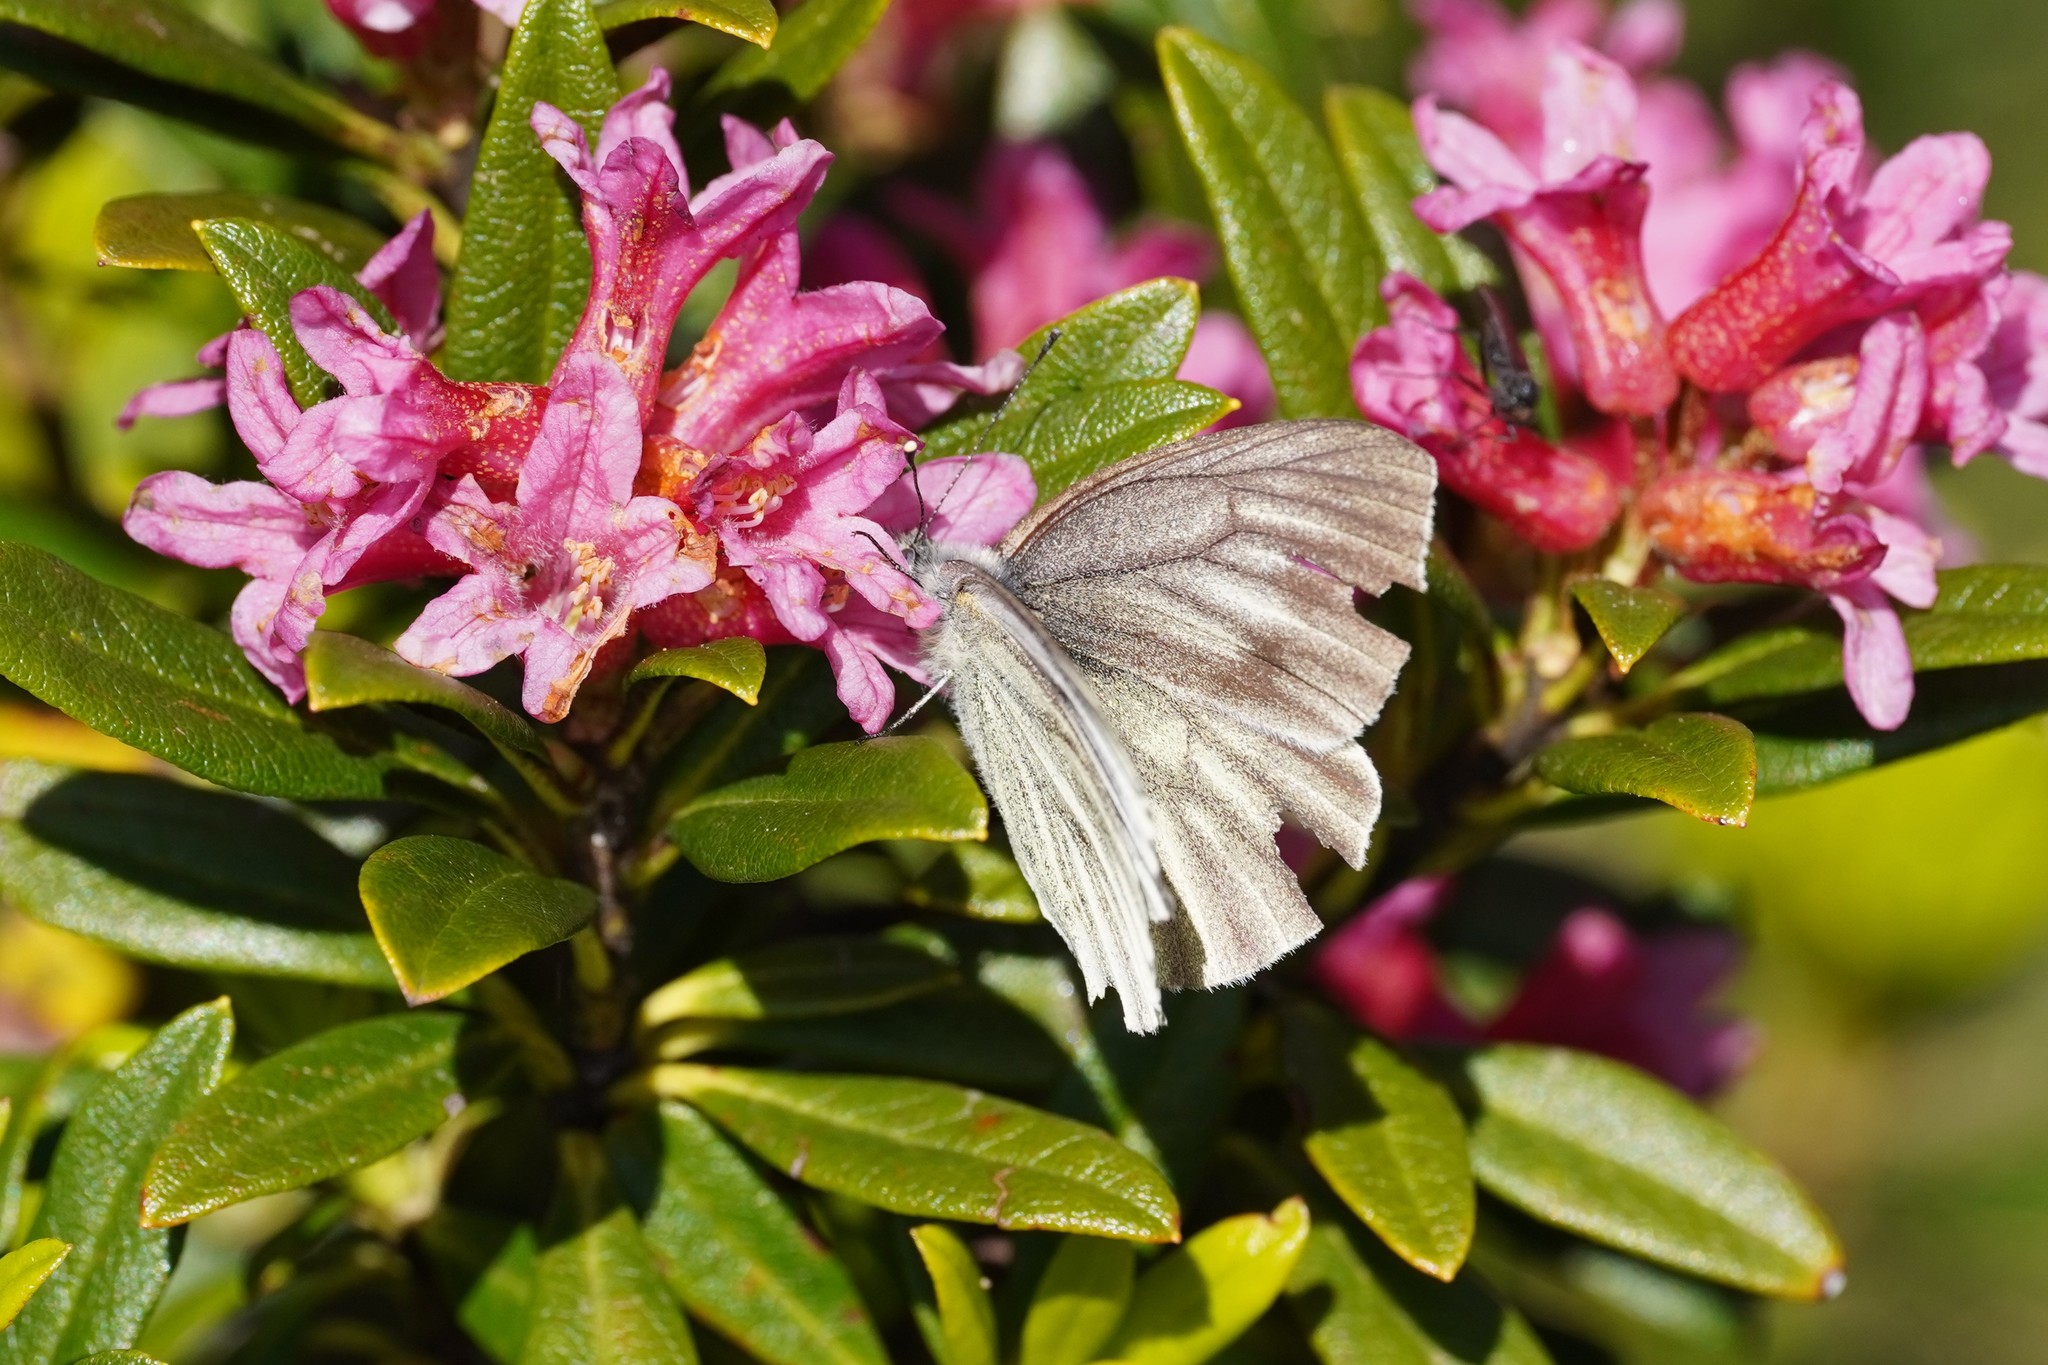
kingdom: Animalia
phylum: Arthropoda
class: Insecta
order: Lepidoptera
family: Pieridae
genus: Pieris
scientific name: Pieris bryoniae
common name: Mountain green-veined white
